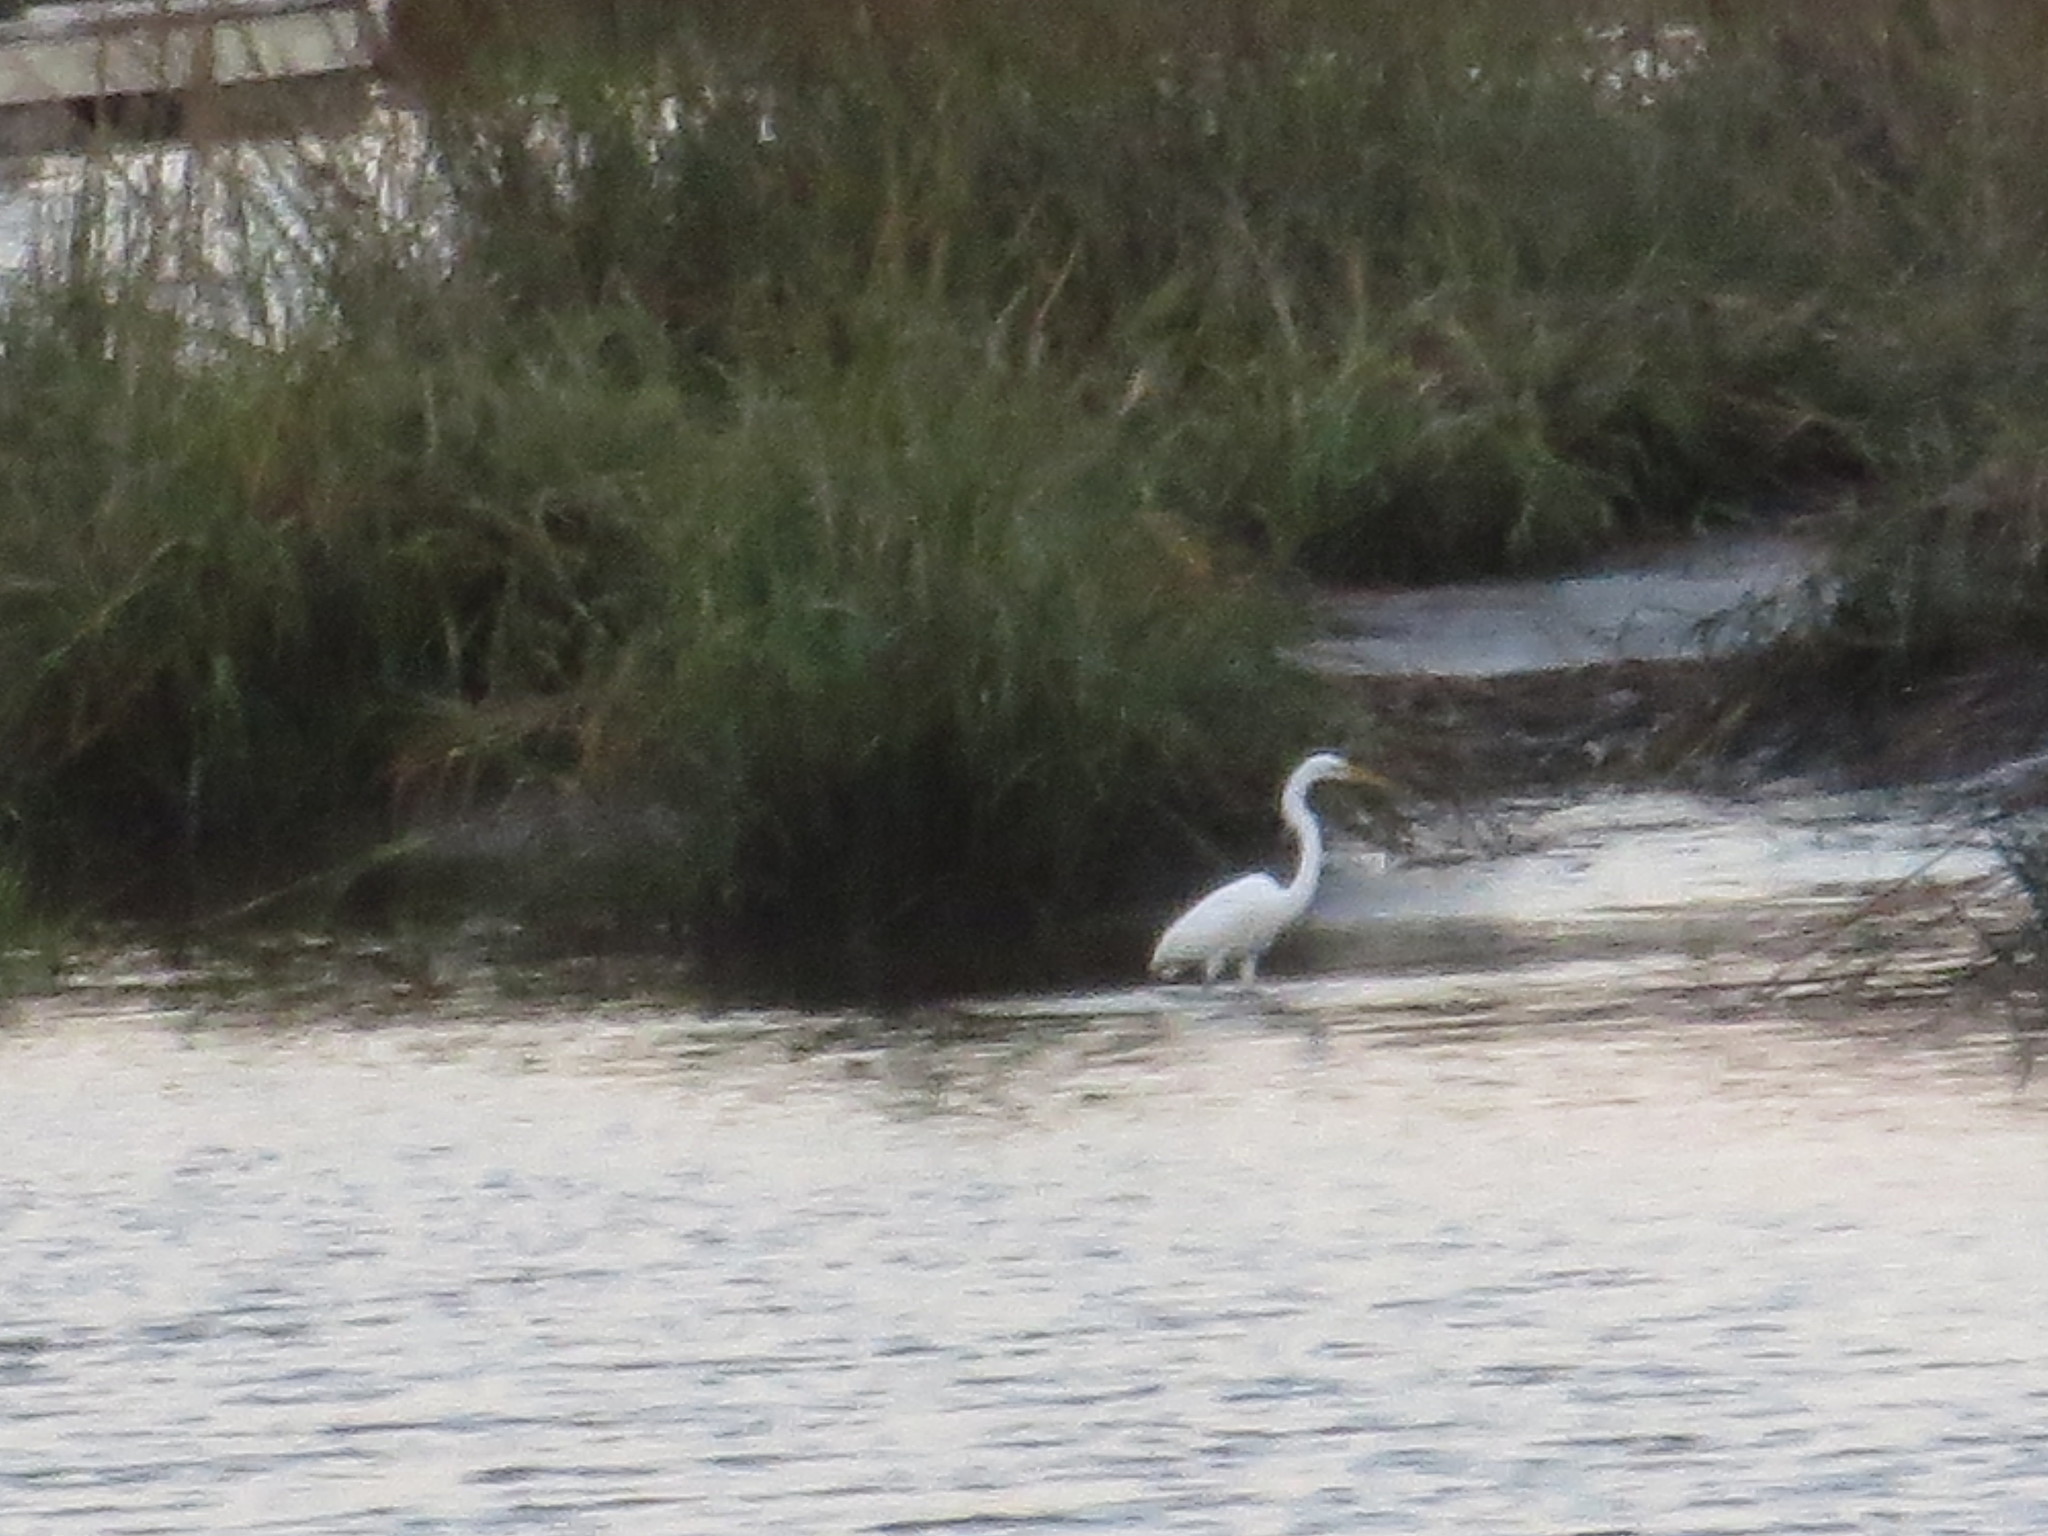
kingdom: Animalia
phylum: Chordata
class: Aves
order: Pelecaniformes
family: Ardeidae
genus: Ardea
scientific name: Ardea alba
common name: Great egret
